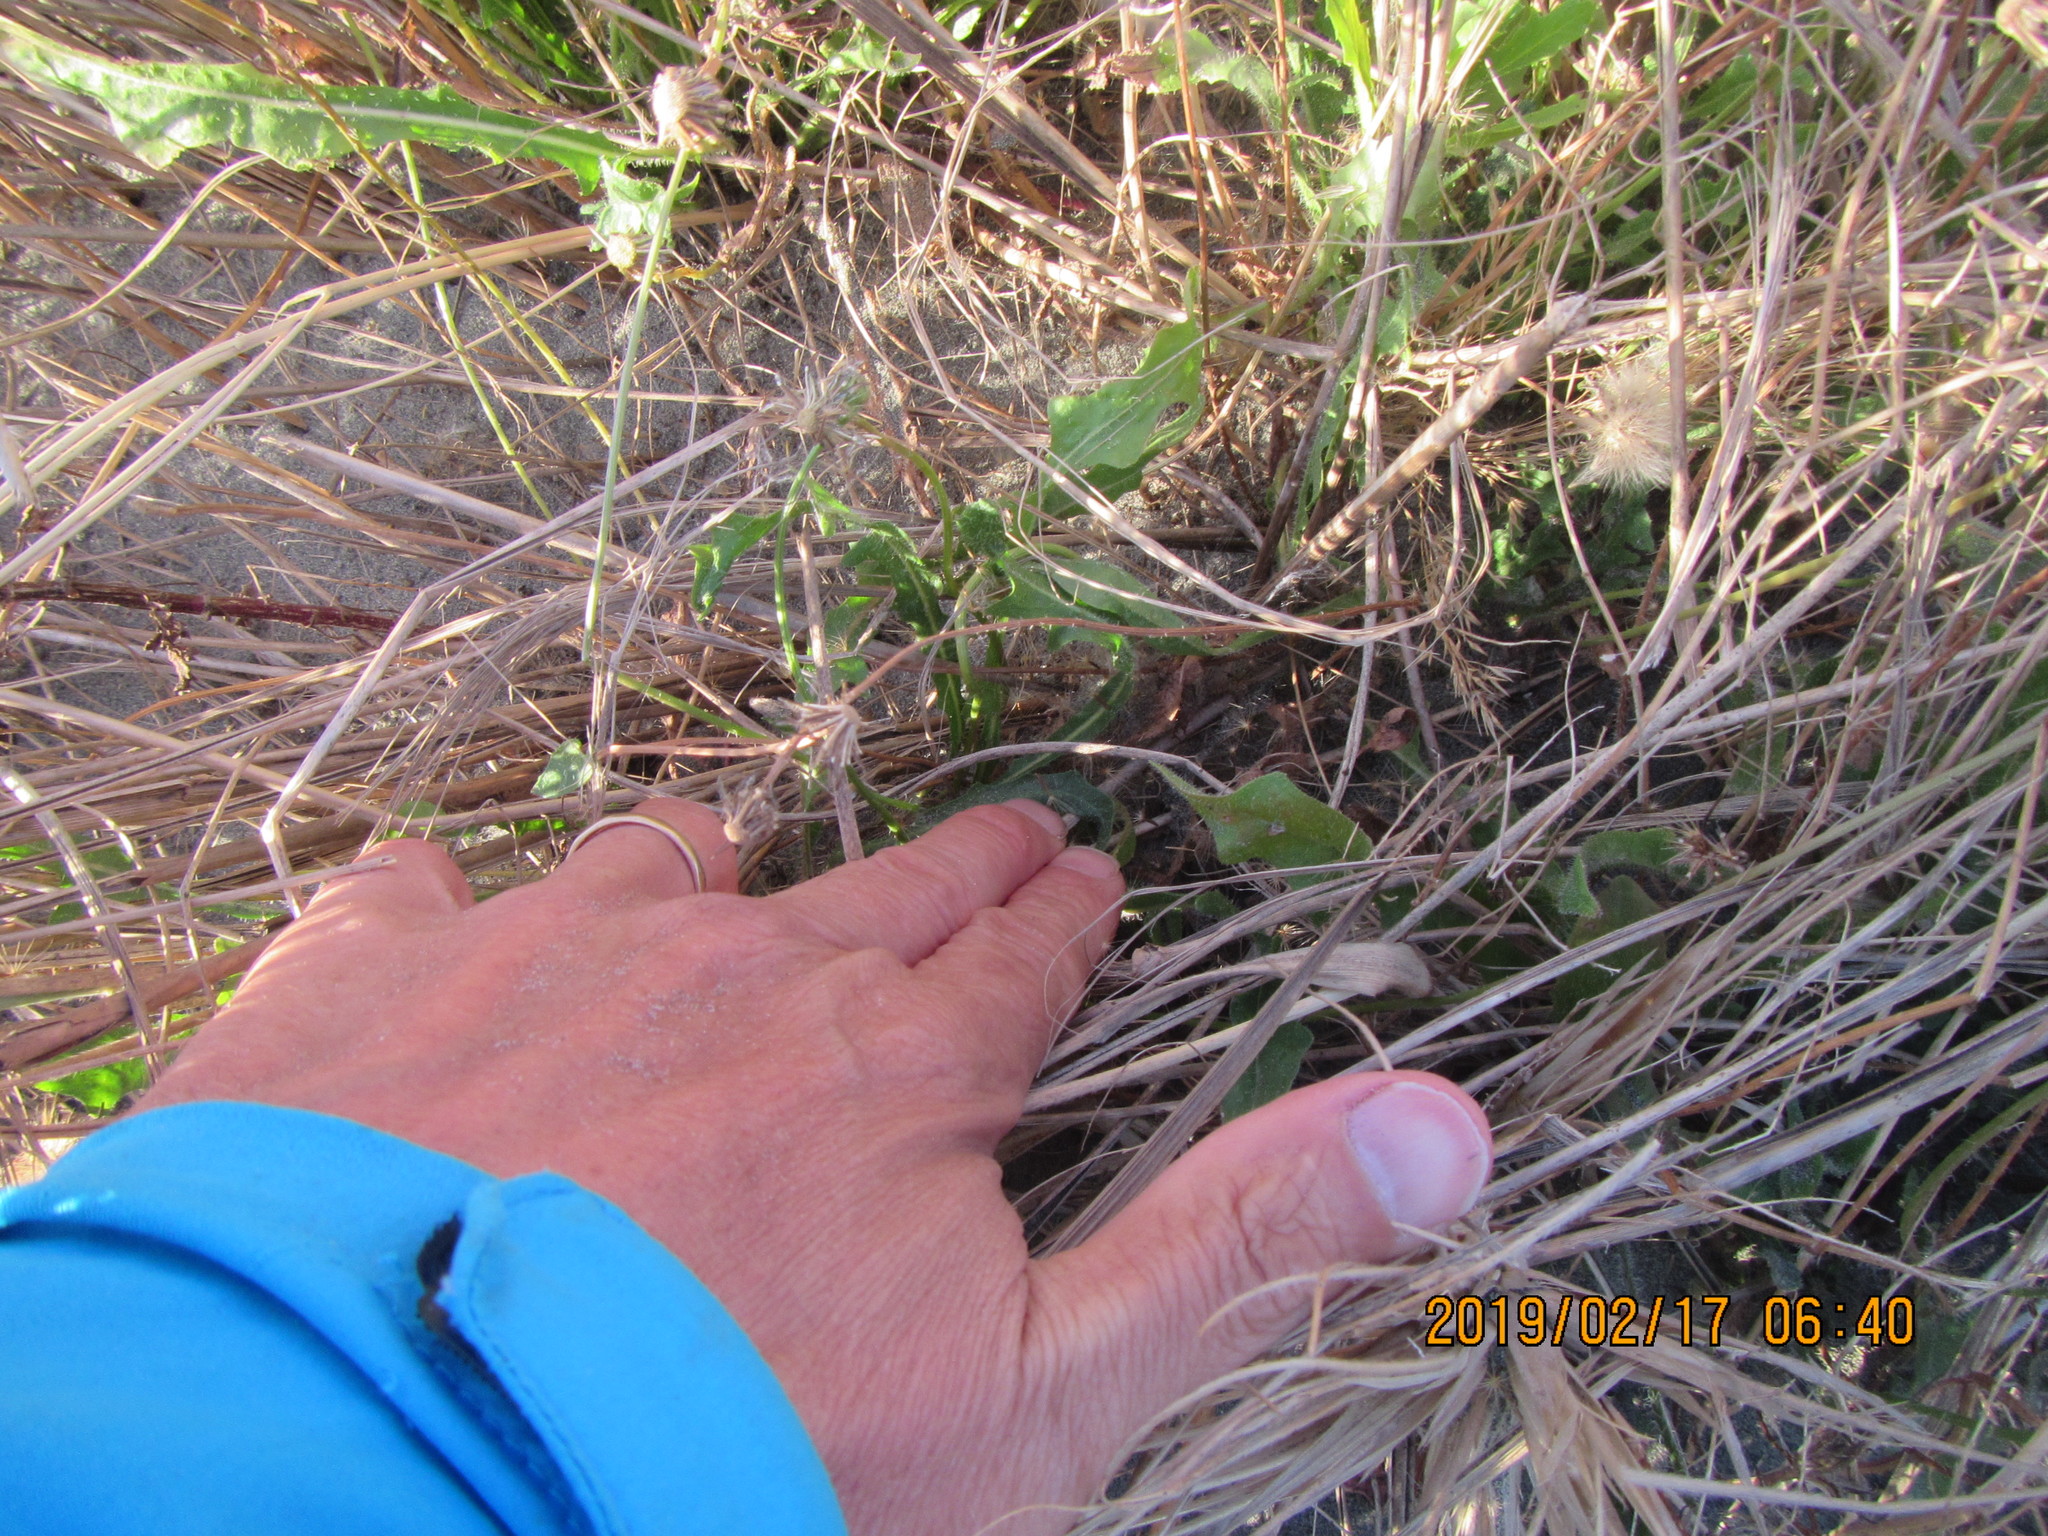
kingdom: Animalia
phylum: Arthropoda
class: Arachnida
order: Araneae
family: Theridiidae
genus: Latrodectus
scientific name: Latrodectus katipo
